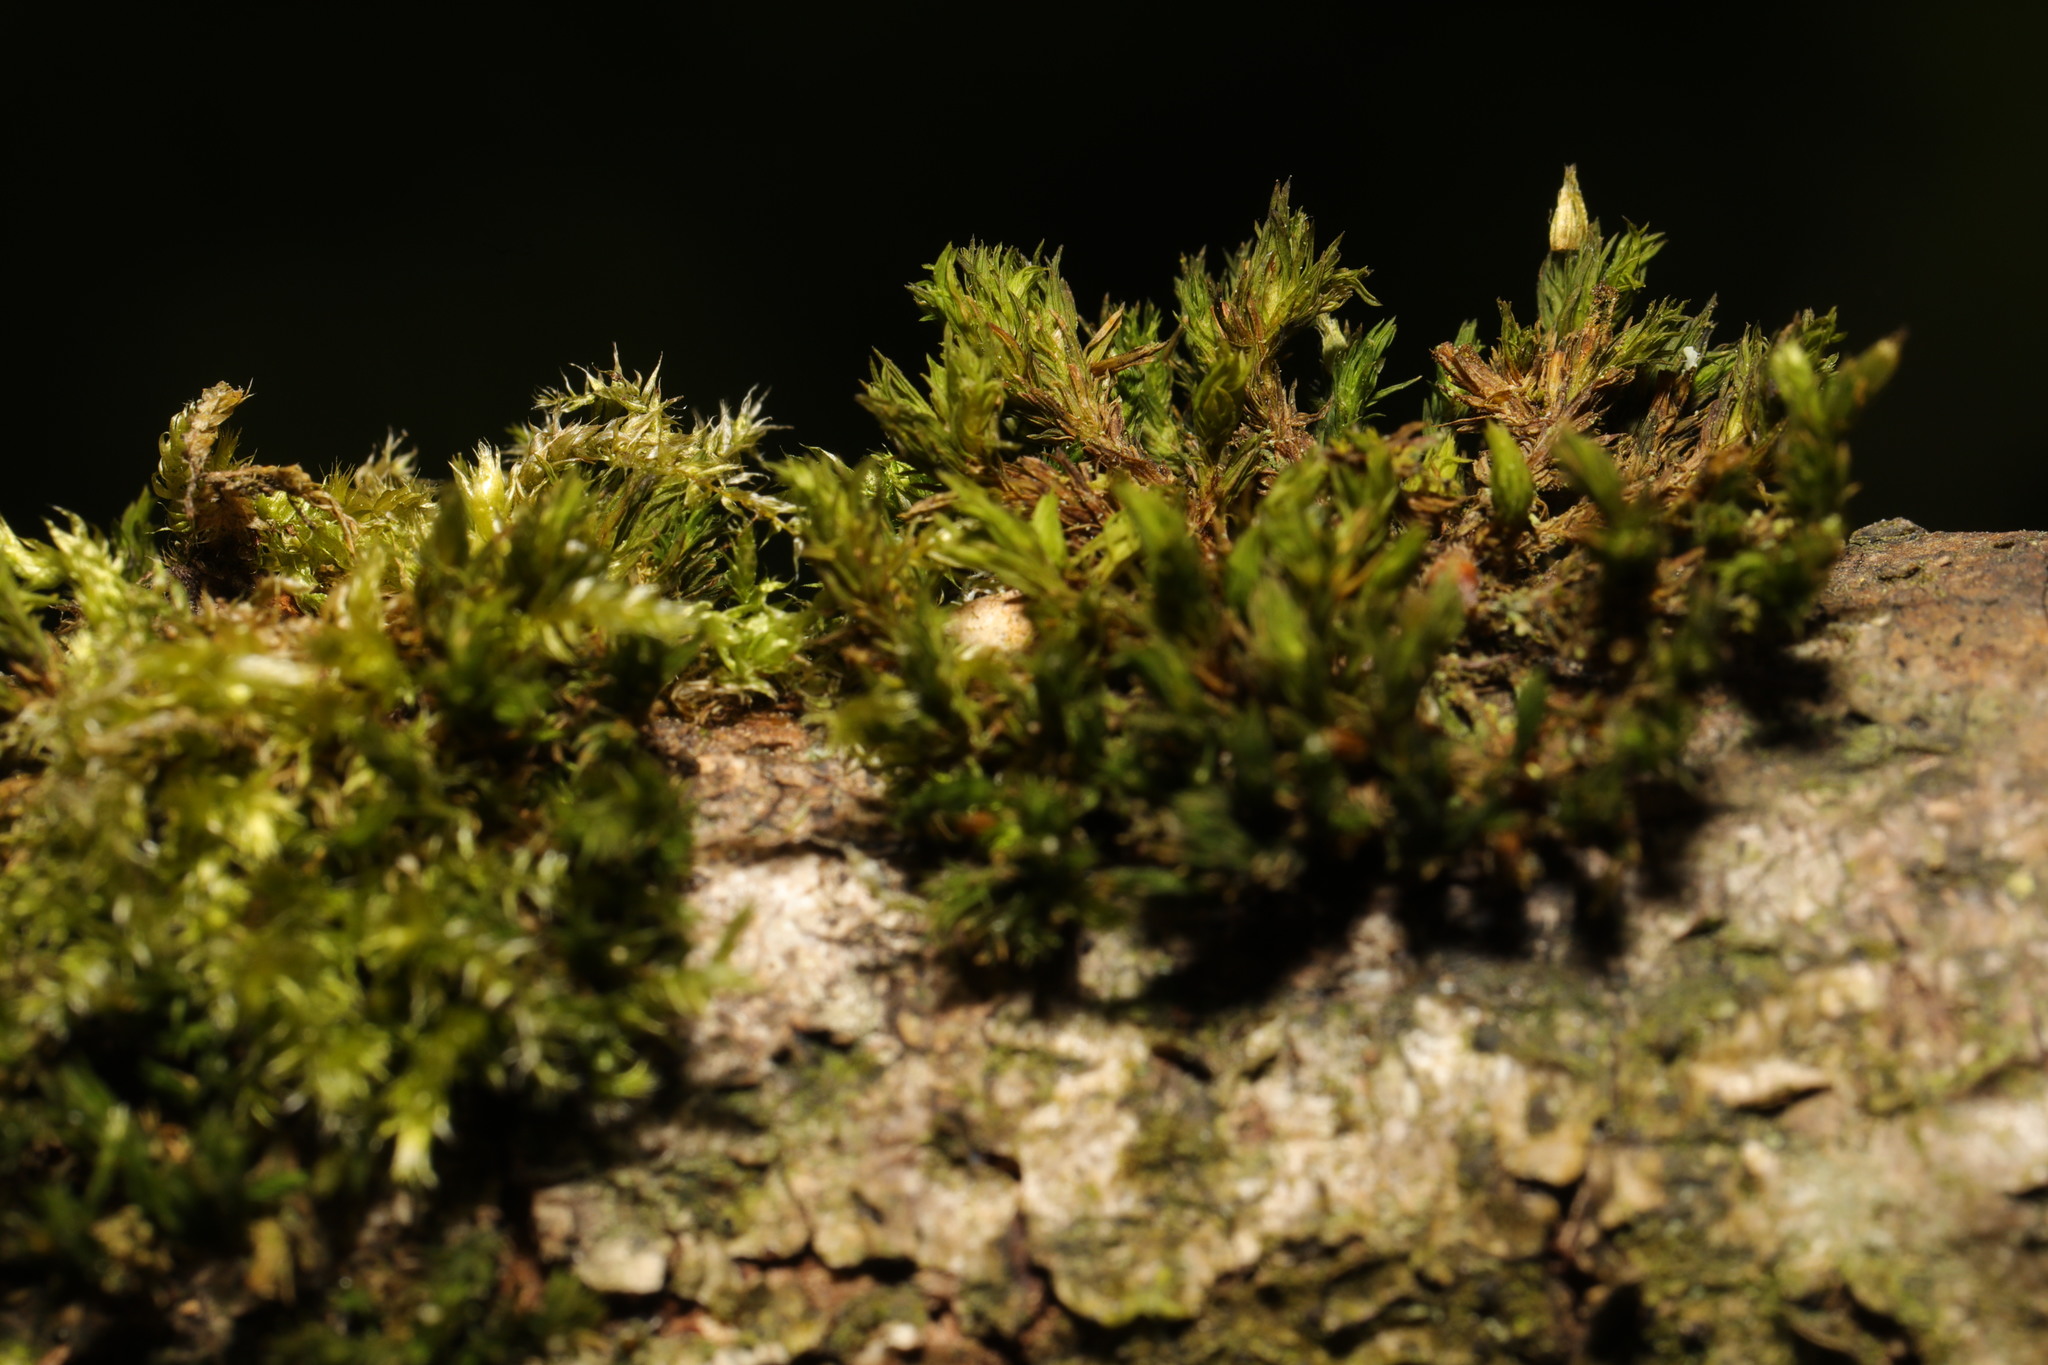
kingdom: Plantae
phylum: Bryophyta
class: Bryopsida
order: Orthotrichales
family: Orthotrichaceae
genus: Lewinskya
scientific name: Lewinskya affinis
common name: Wood bristle-moss
